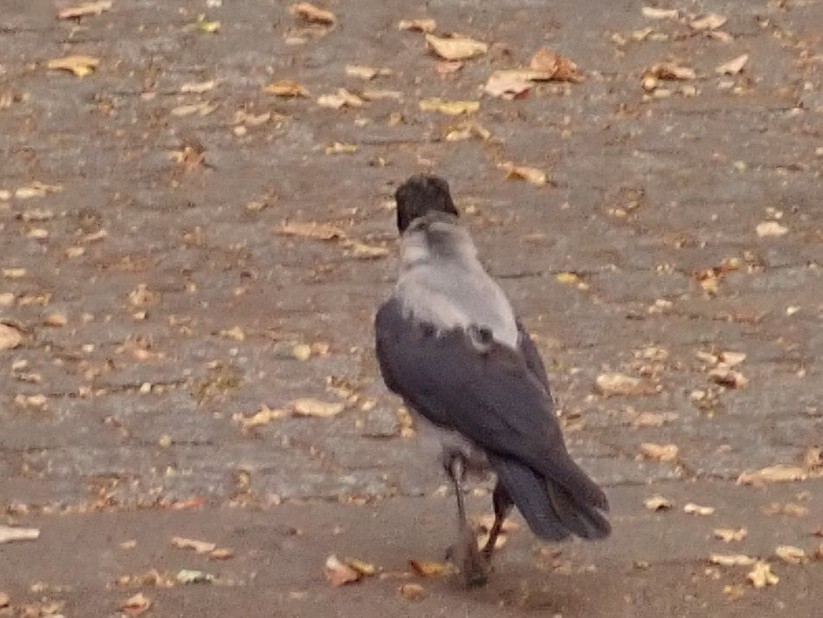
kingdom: Animalia
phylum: Chordata
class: Aves
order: Passeriformes
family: Corvidae
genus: Corvus
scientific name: Corvus cornix
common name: Hooded crow
